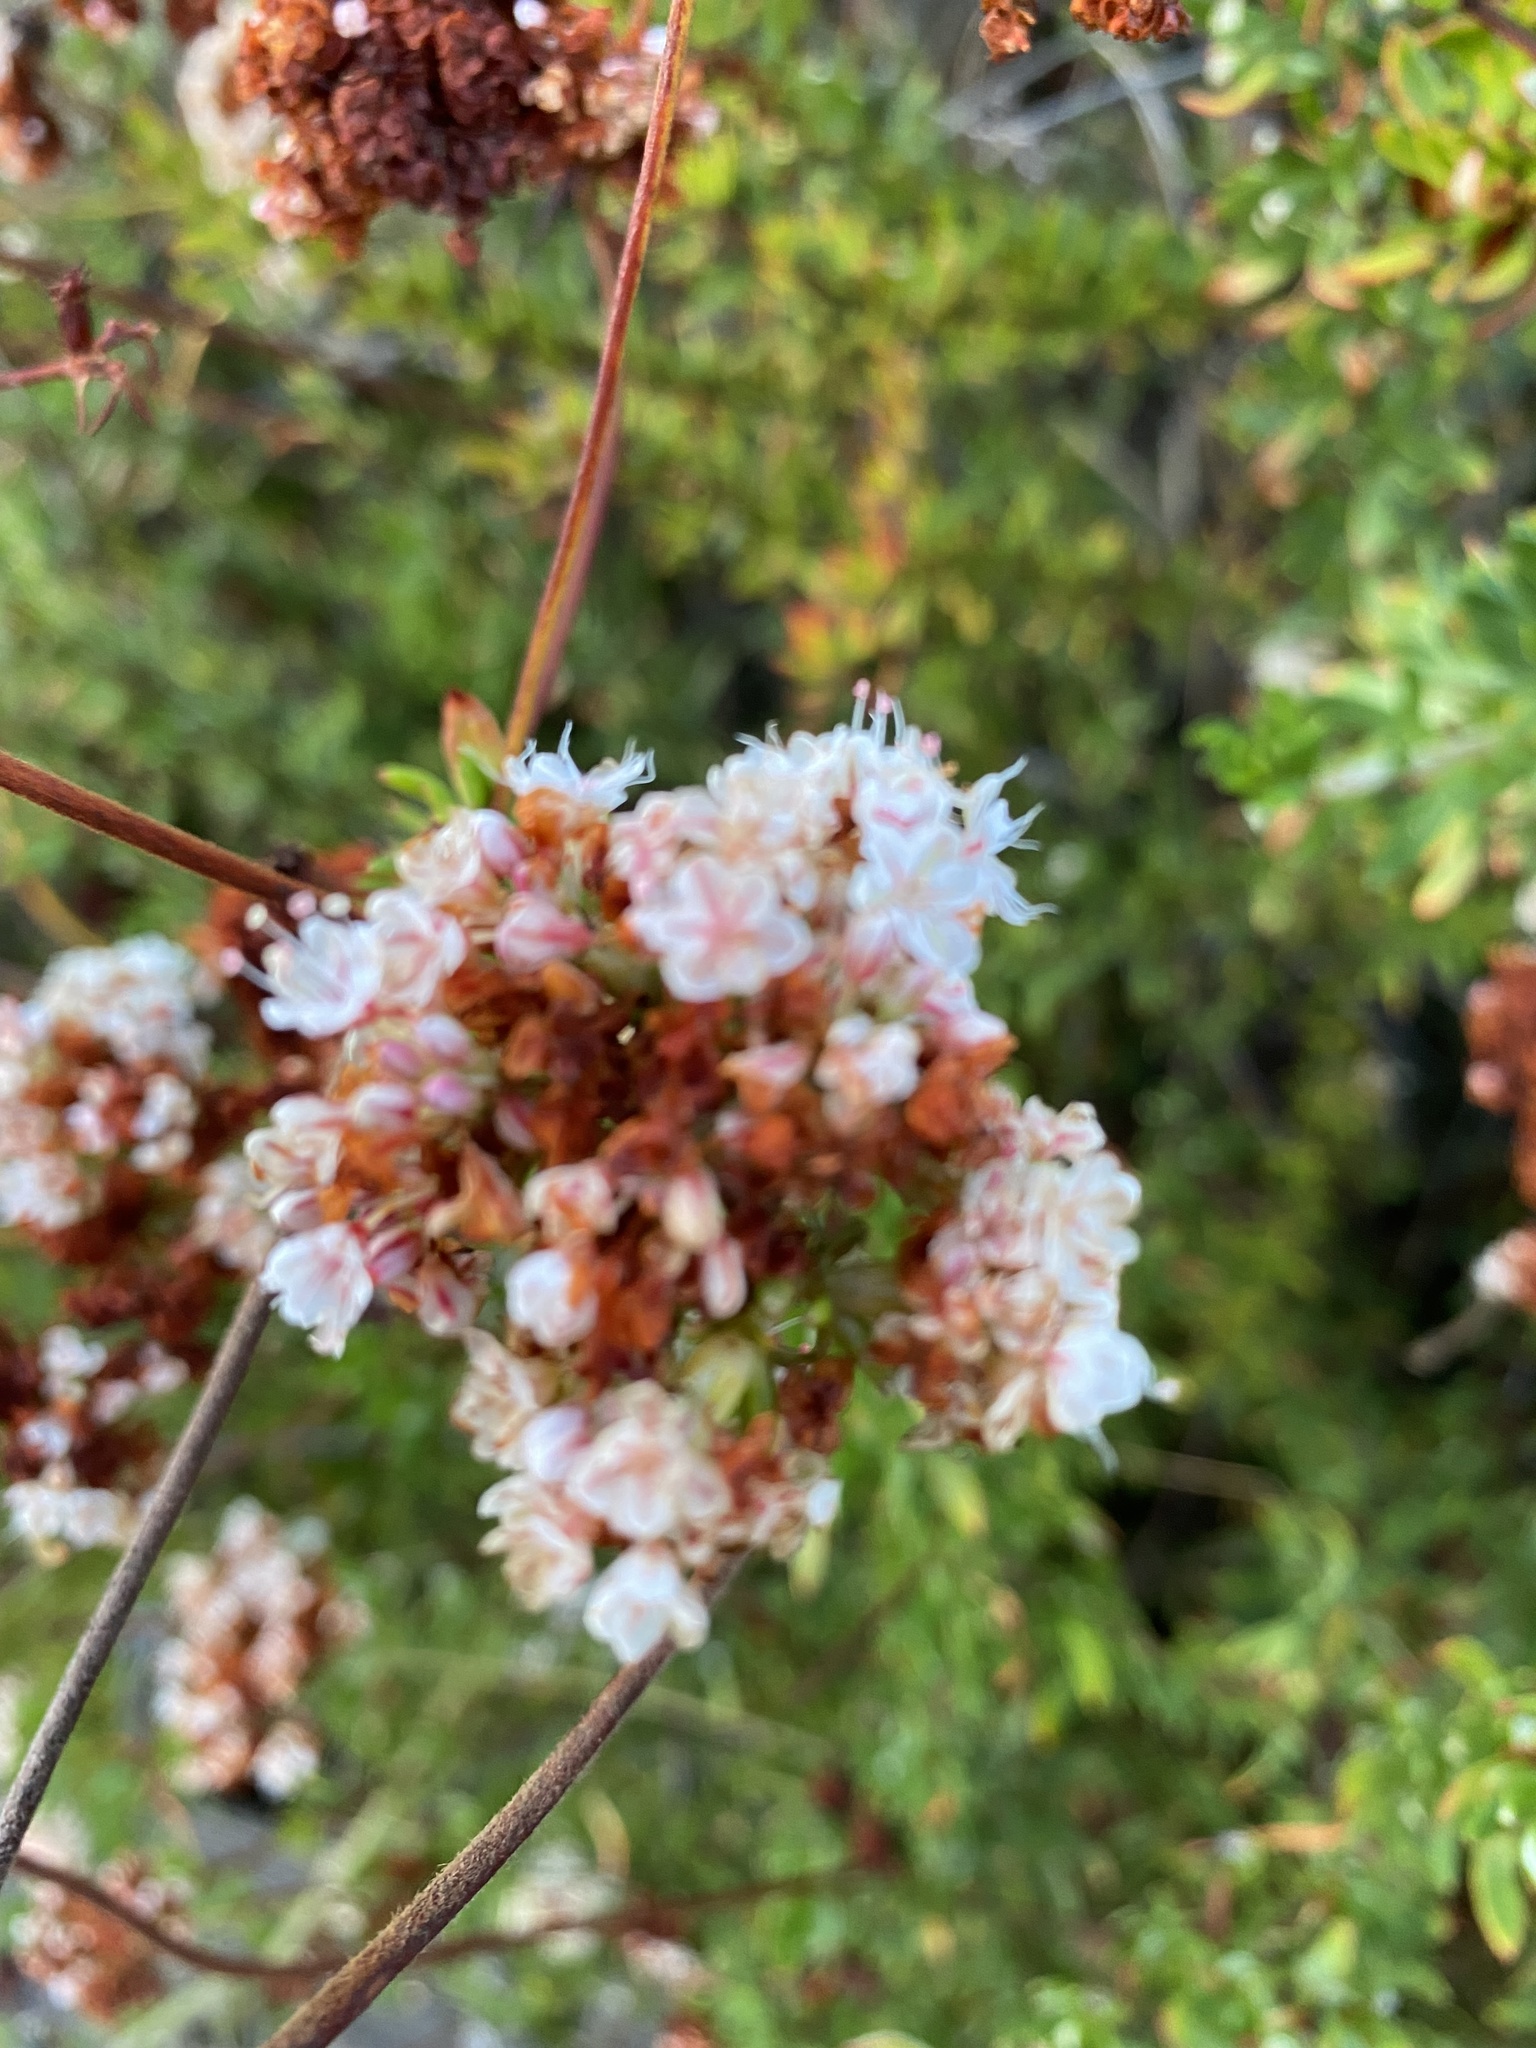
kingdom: Plantae
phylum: Tracheophyta
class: Magnoliopsida
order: Caryophyllales
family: Polygonaceae
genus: Eriogonum
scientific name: Eriogonum fasciculatum
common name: California wild buckwheat
